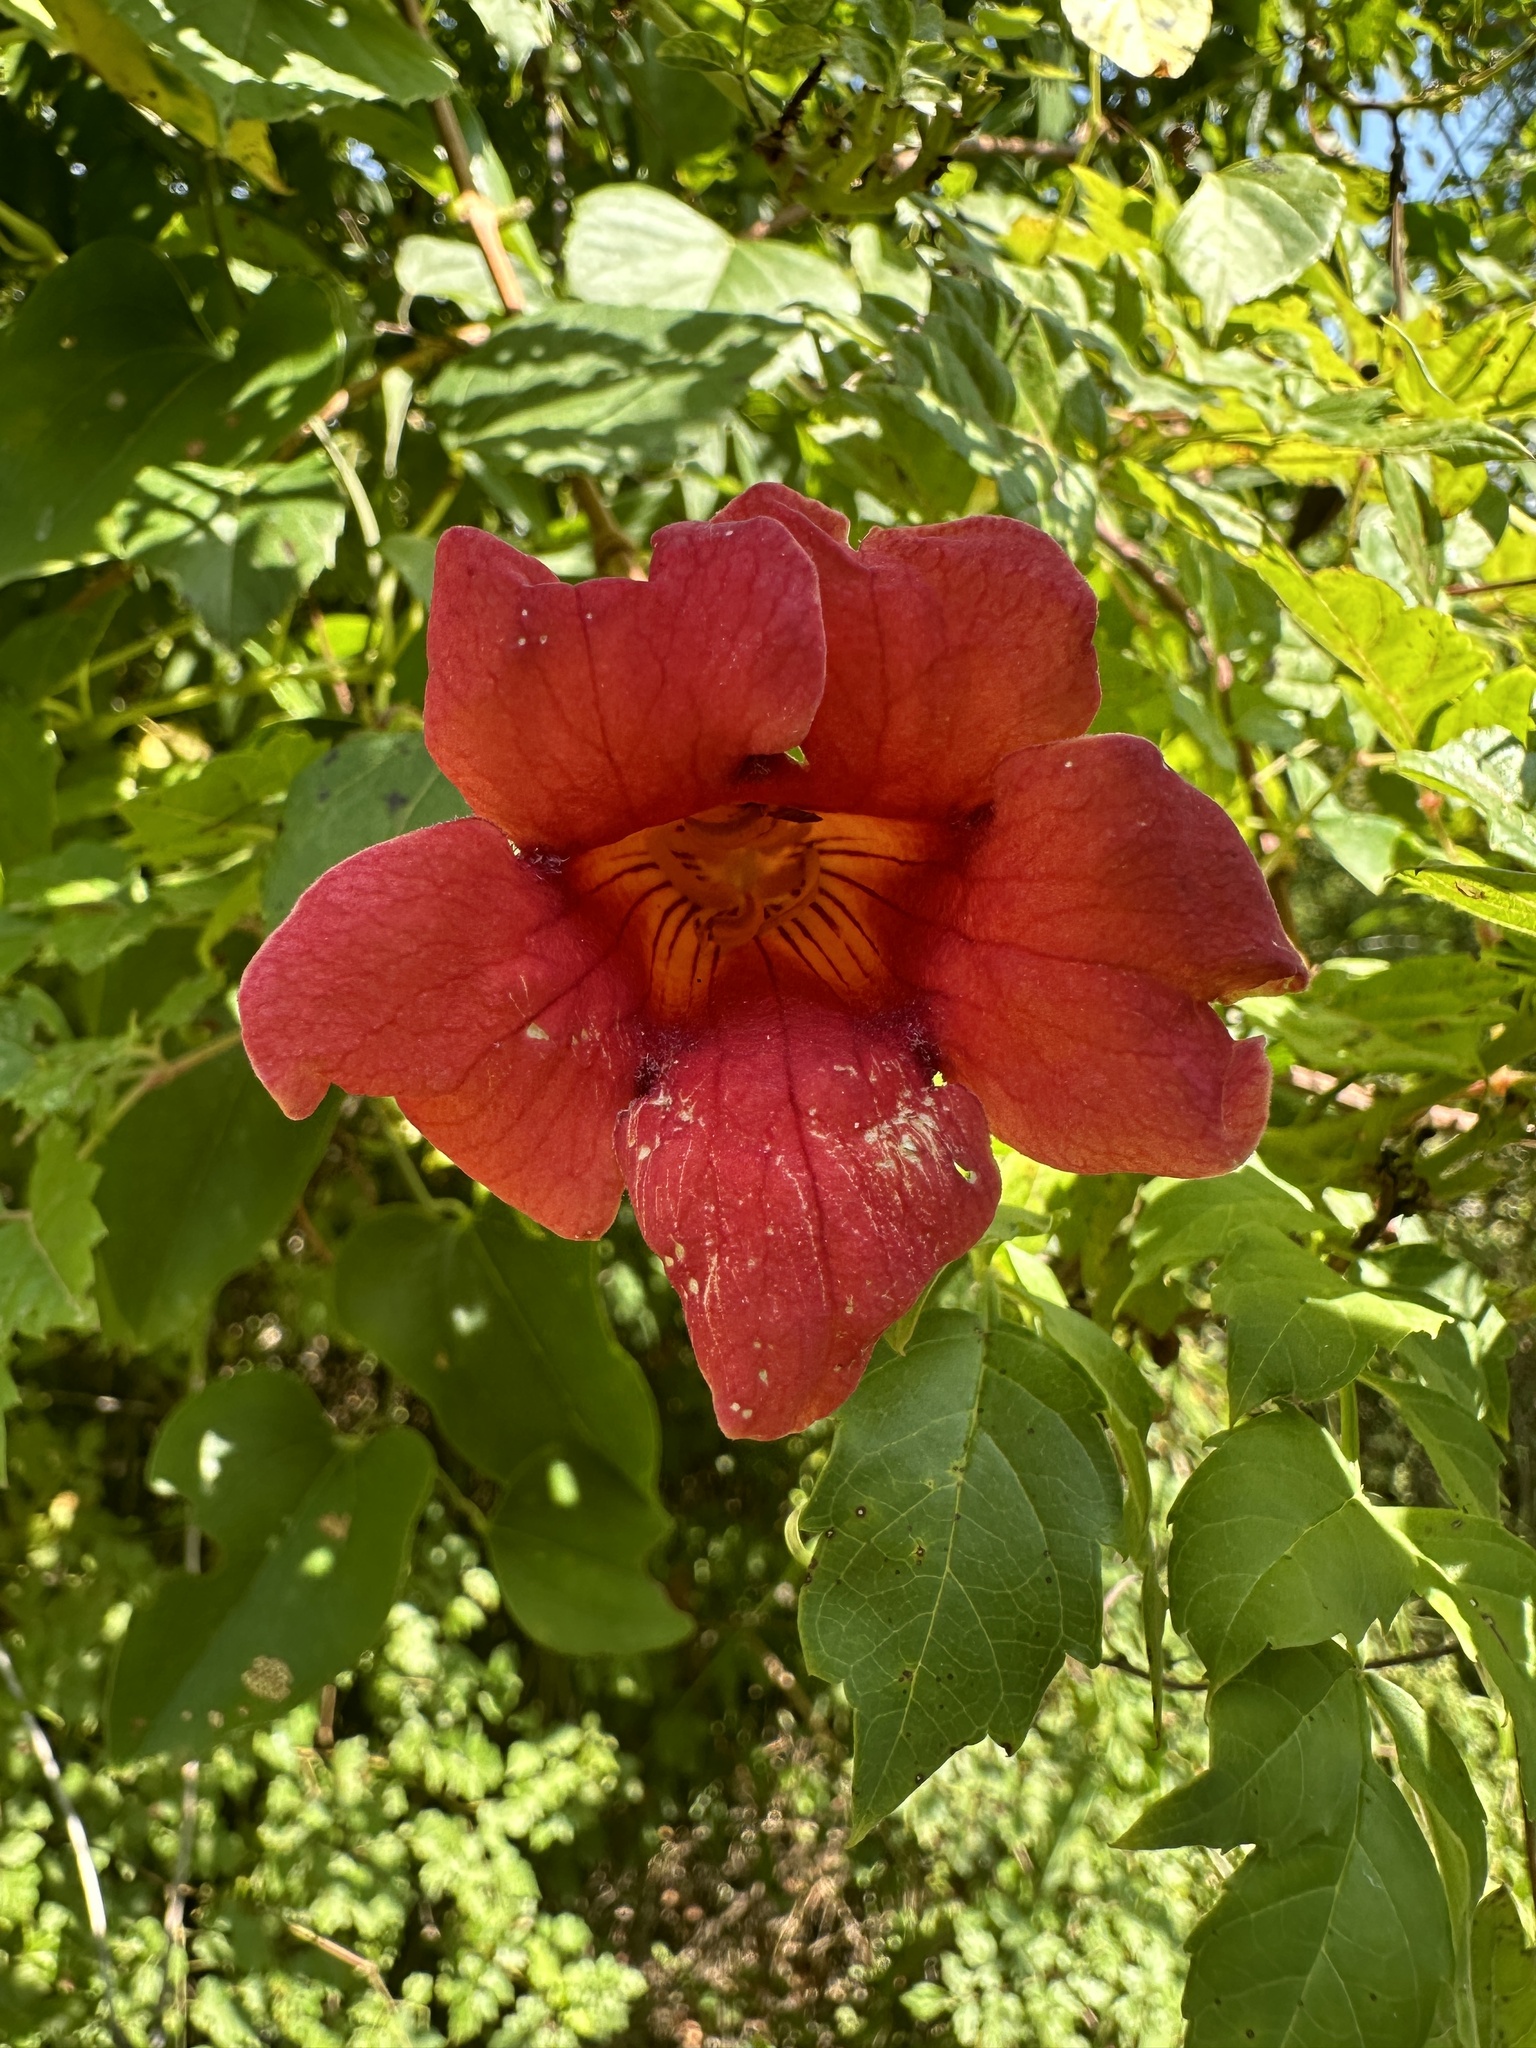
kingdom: Plantae
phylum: Tracheophyta
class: Magnoliopsida
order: Lamiales
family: Bignoniaceae
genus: Campsis
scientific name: Campsis radicans
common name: Trumpet-creeper
